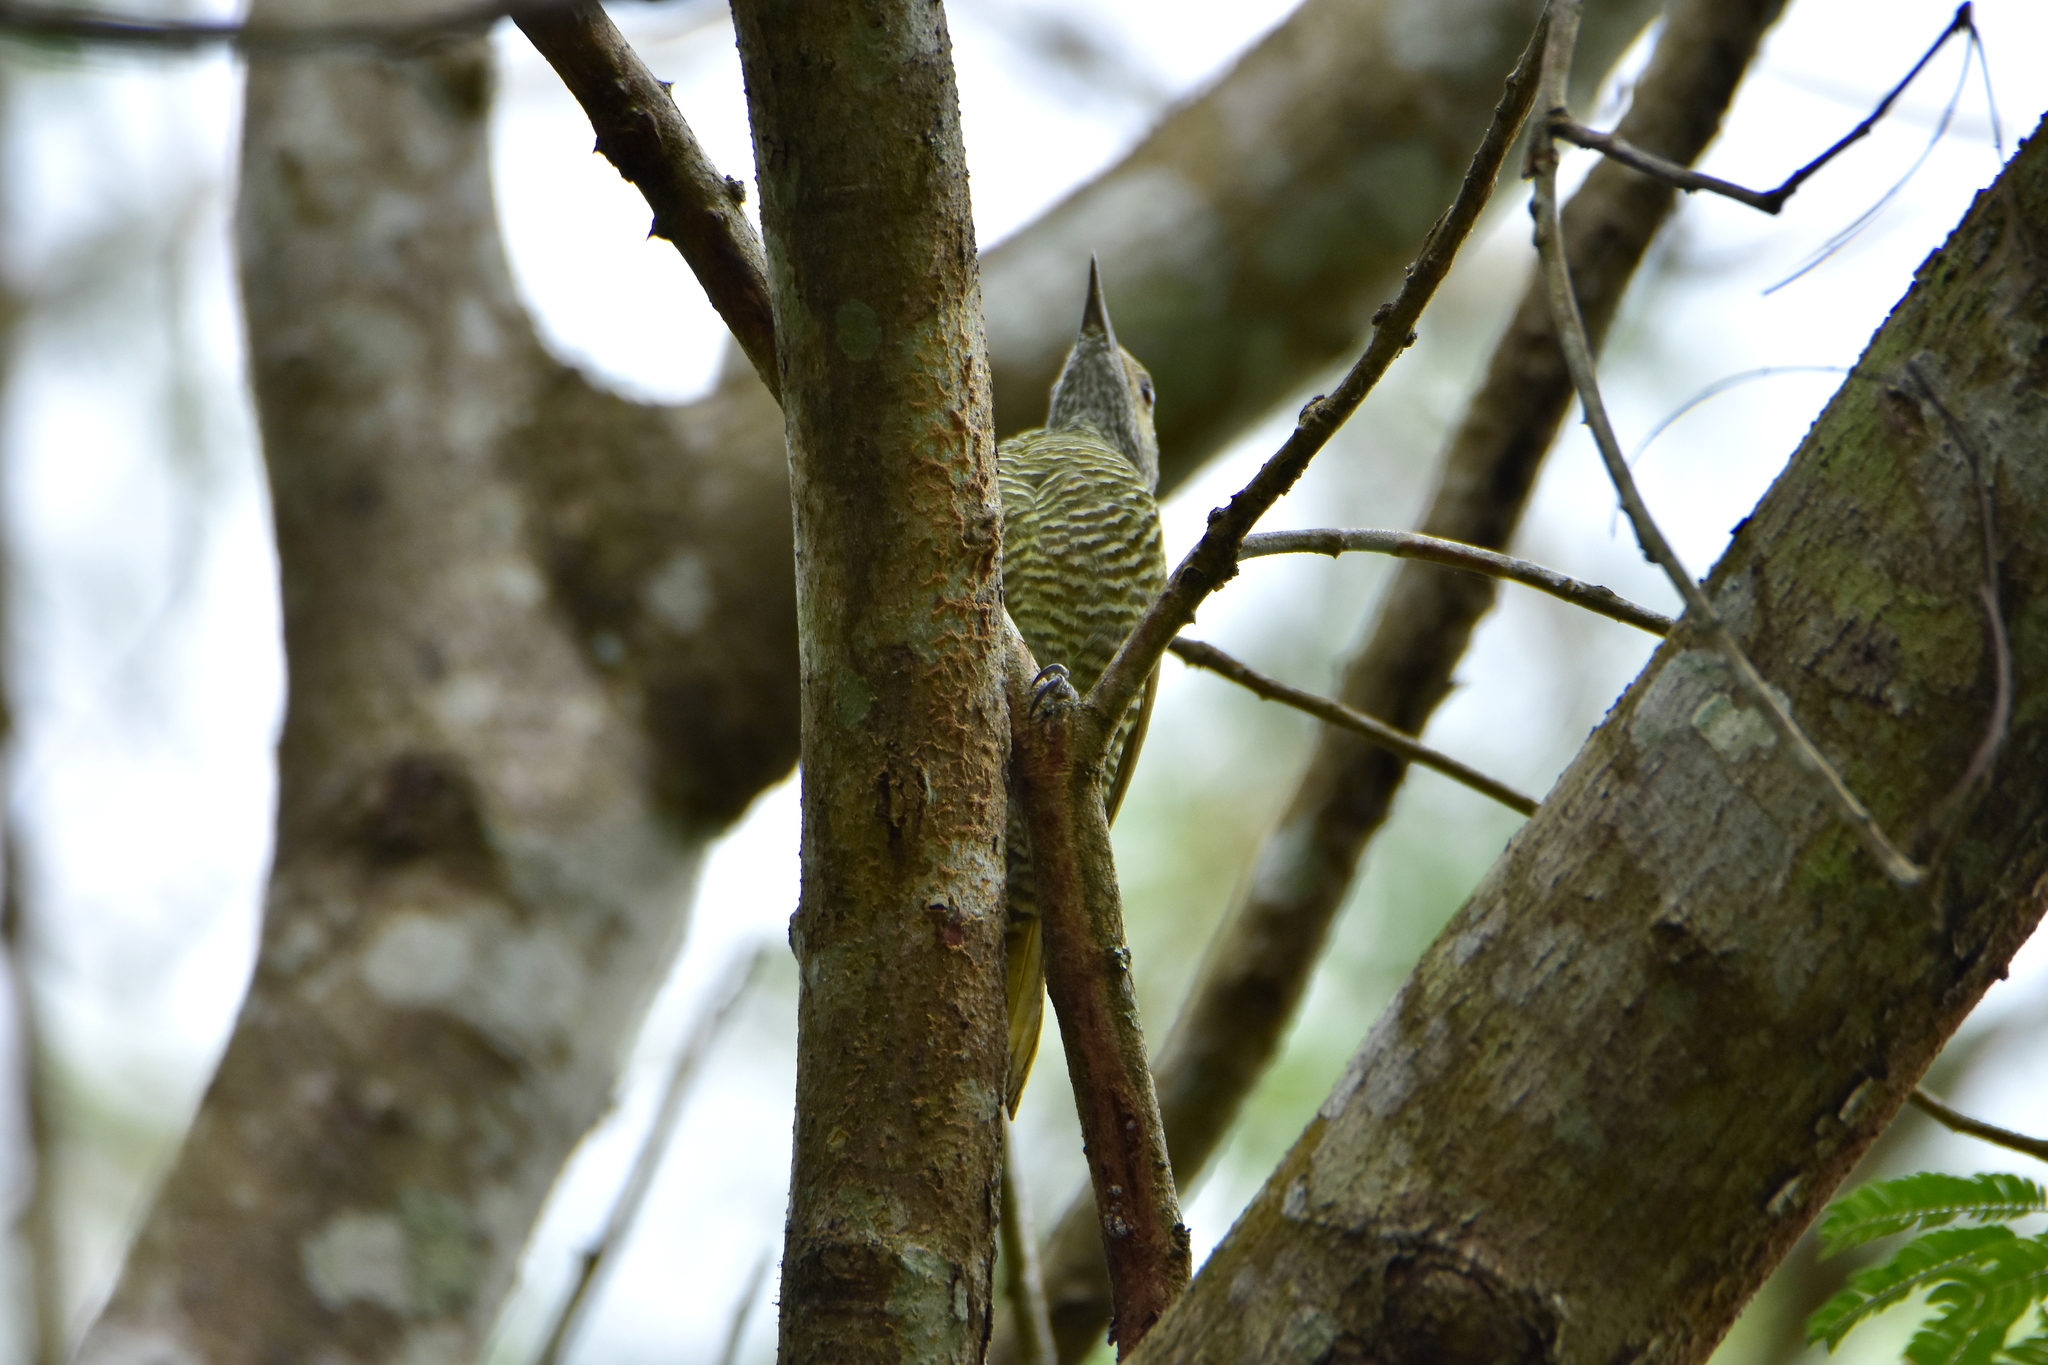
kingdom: Animalia
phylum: Chordata
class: Aves
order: Piciformes
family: Picidae
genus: Colaptes
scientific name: Colaptes auricularis
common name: Grey-crowned woodpecker
